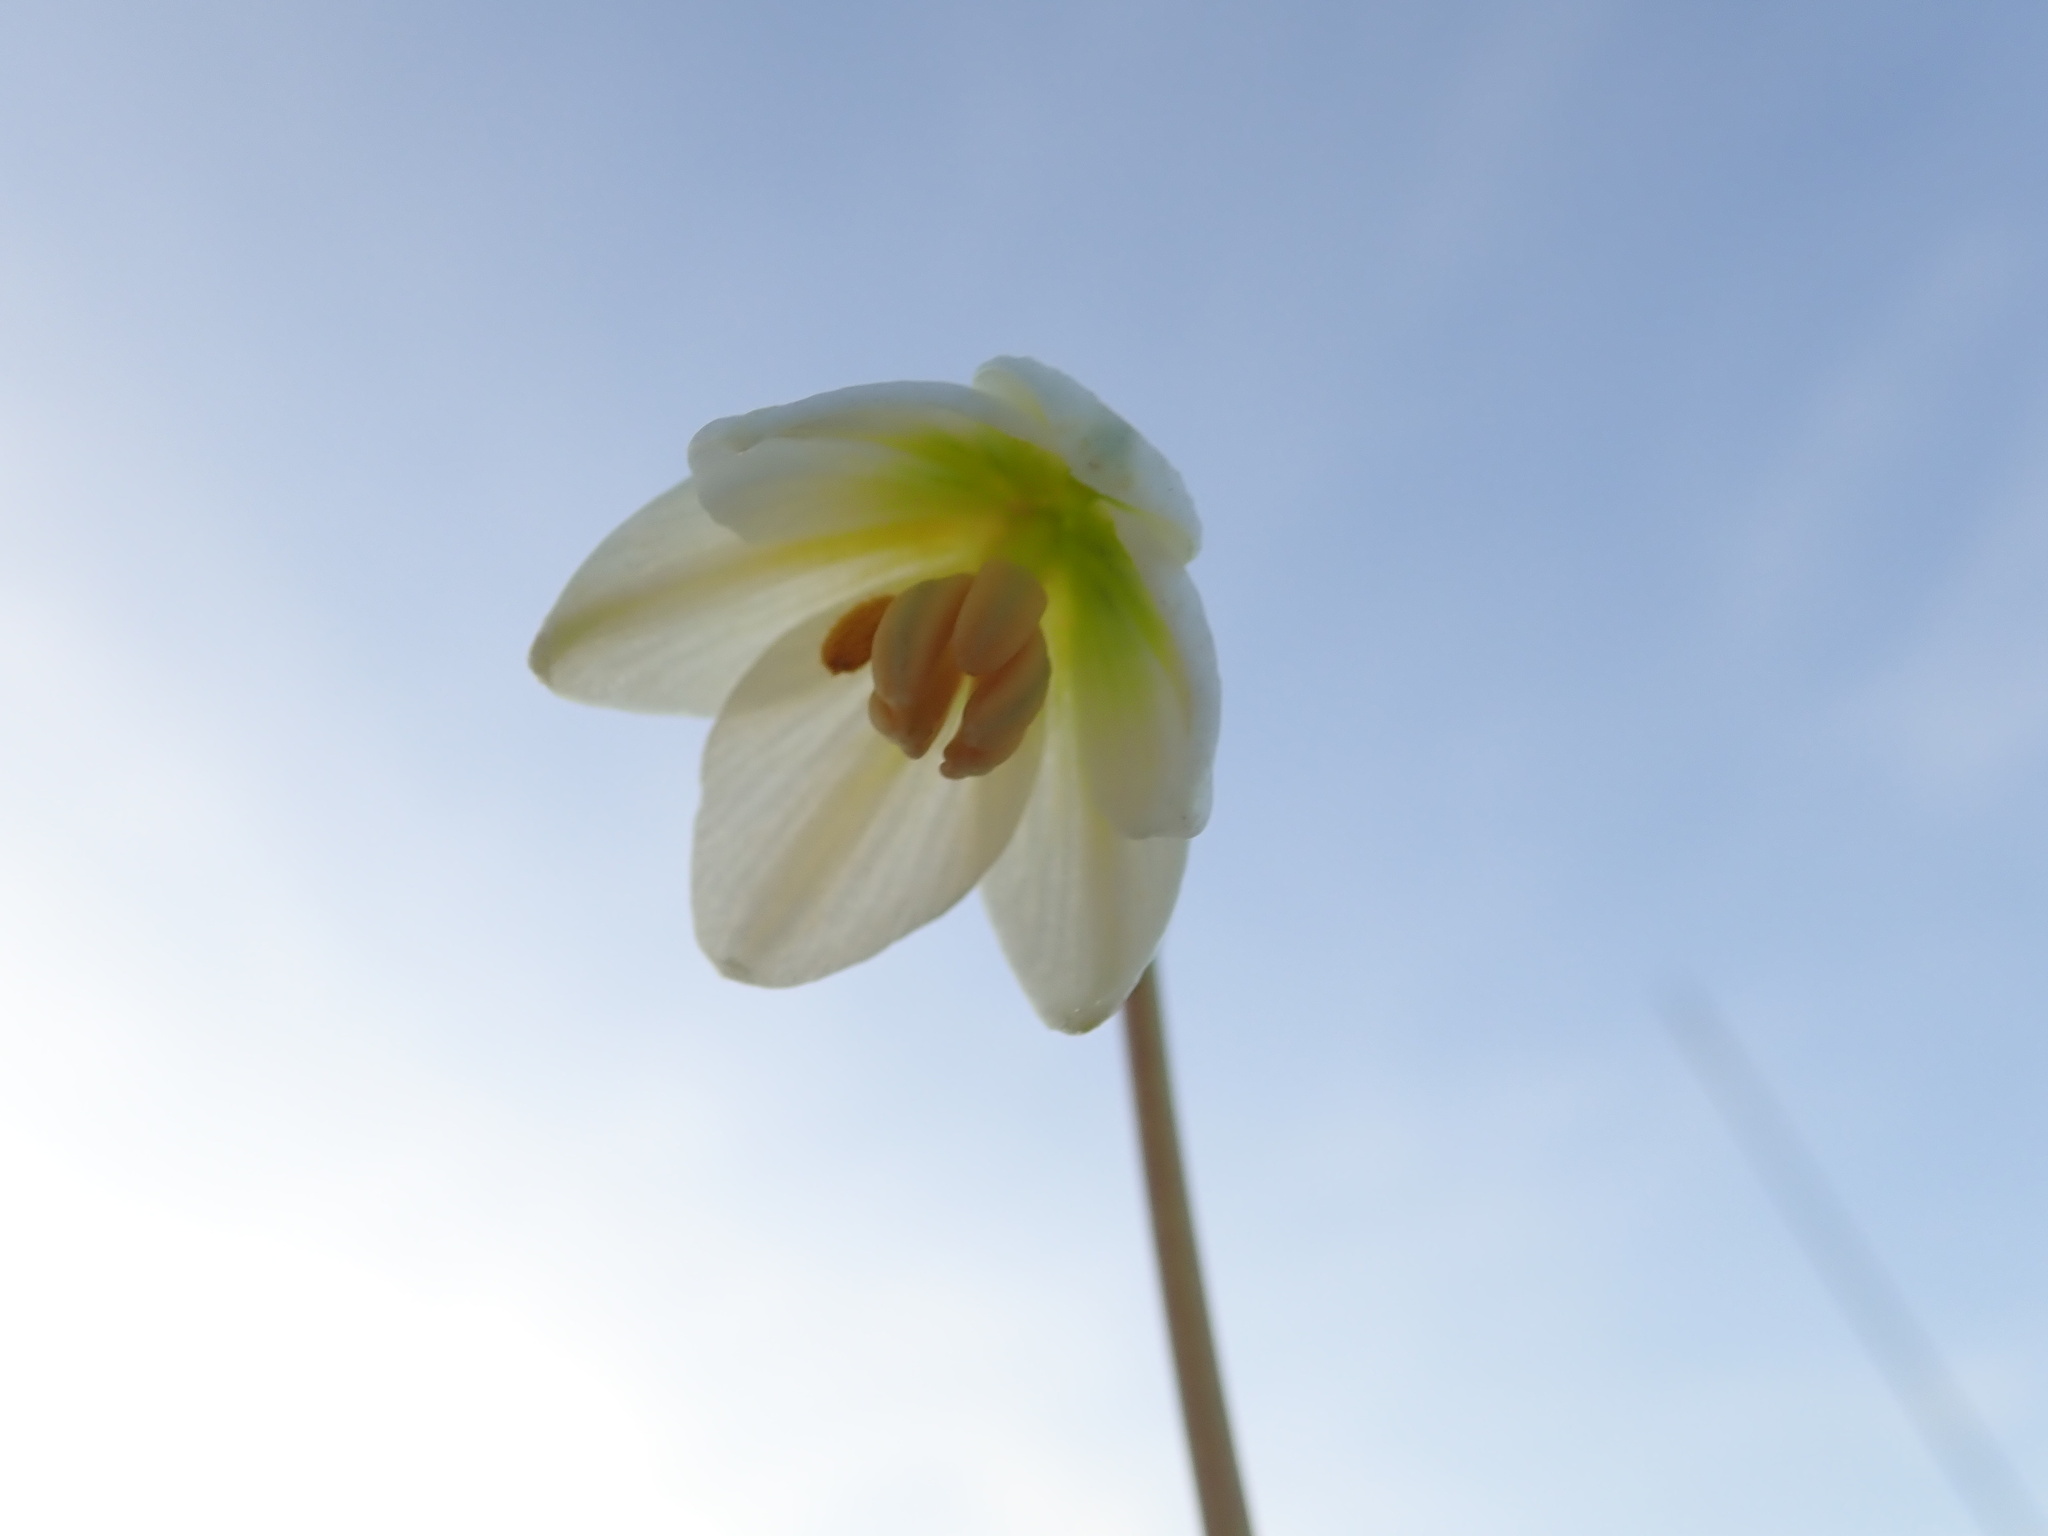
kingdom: Plantae
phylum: Tracheophyta
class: Liliopsida
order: Liliales
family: Liliaceae
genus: Fritillaria
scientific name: Fritillaria liliacea
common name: Fragrant fritillary
